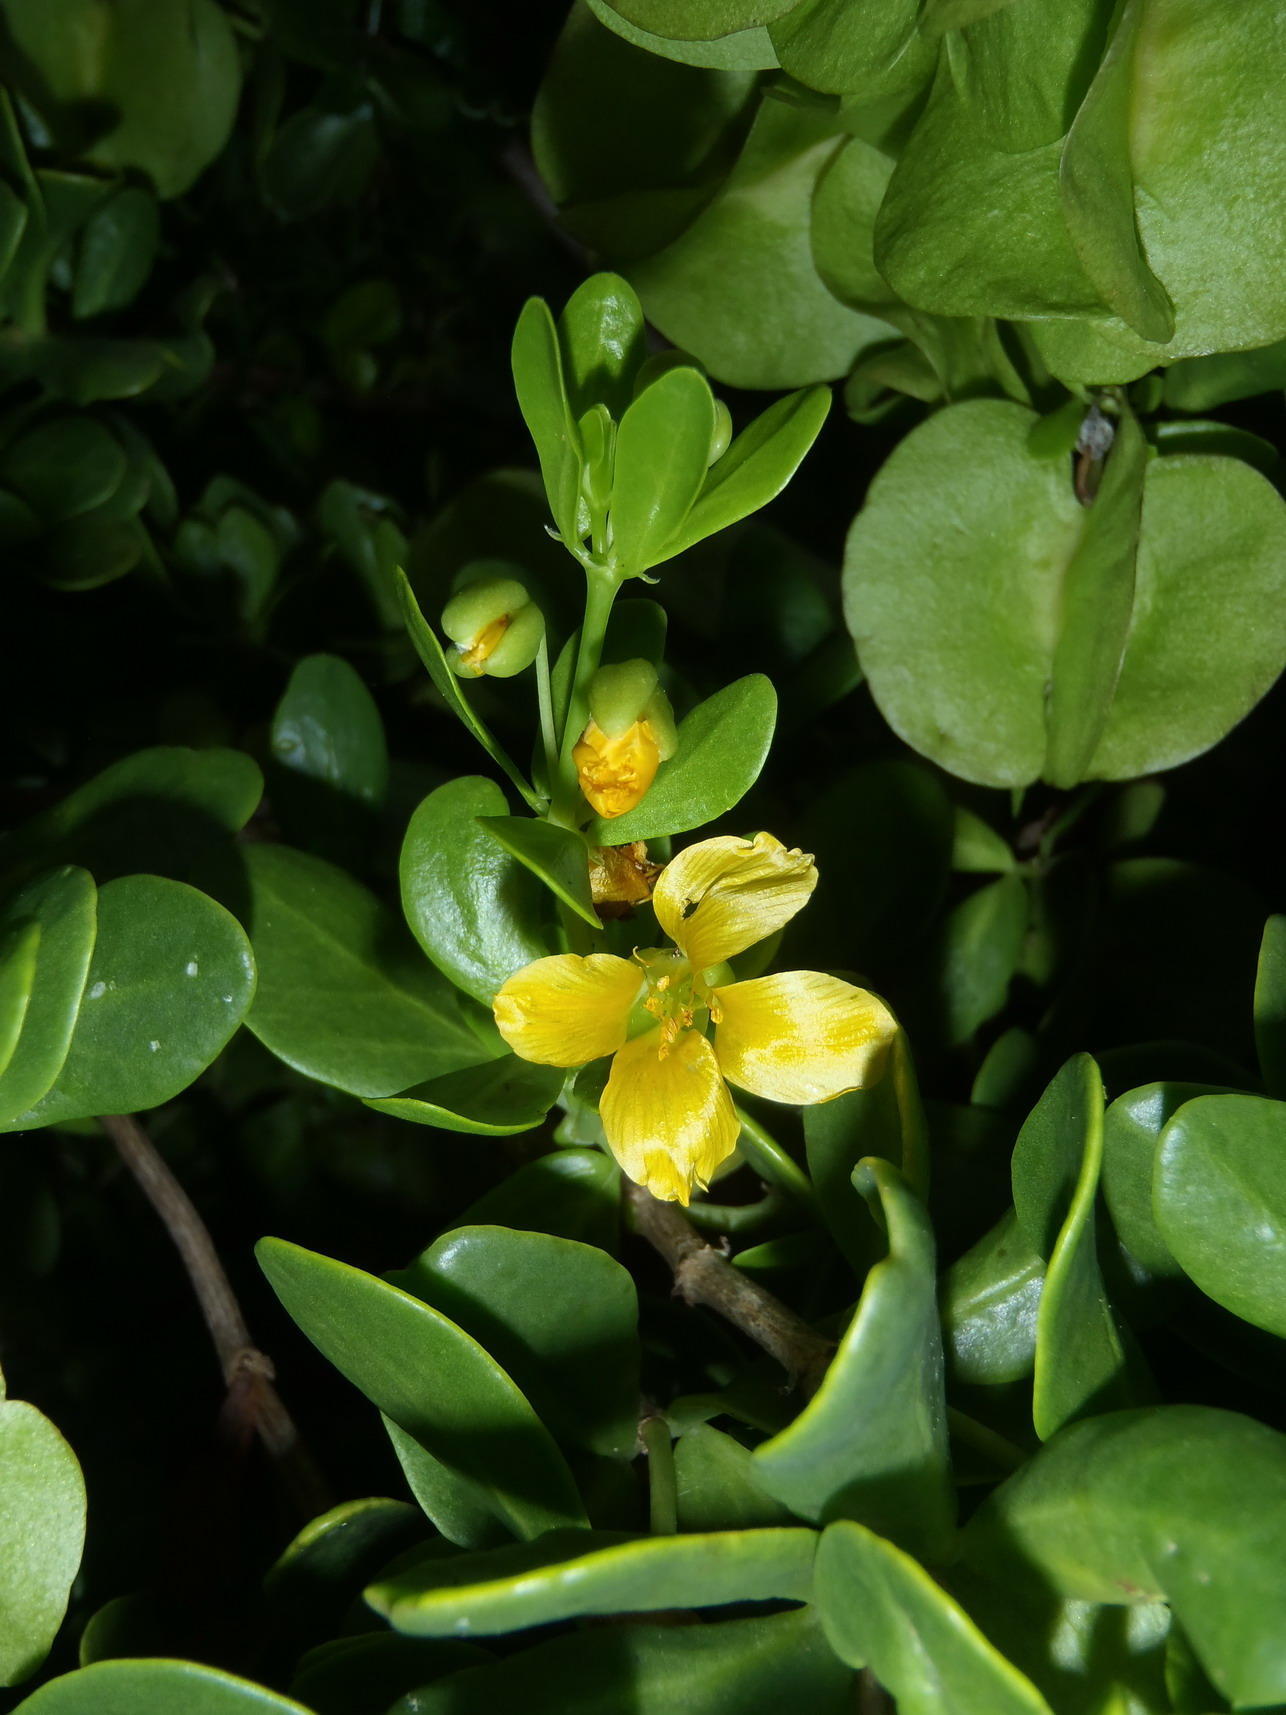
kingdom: Plantae
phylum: Tracheophyta
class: Magnoliopsida
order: Zygophyllales
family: Zygophyllaceae
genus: Roepera
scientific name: Roepera morgsana
